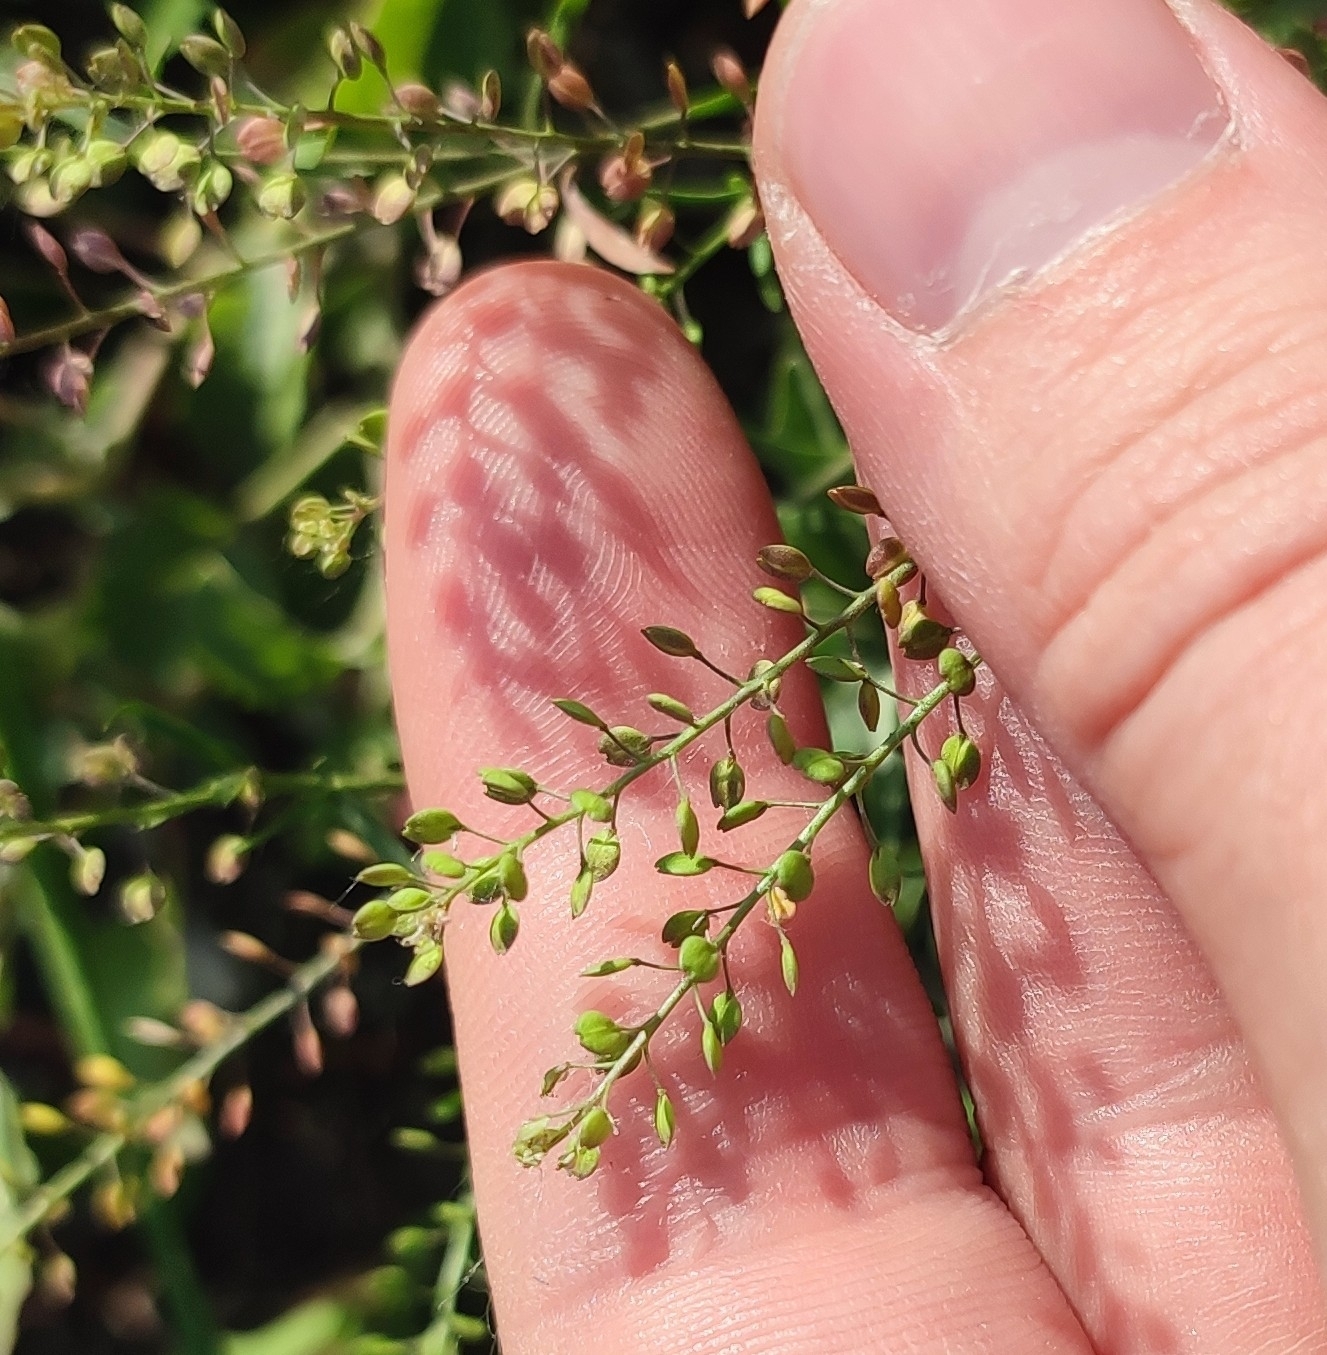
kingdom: Plantae
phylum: Tracheophyta
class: Magnoliopsida
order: Brassicales
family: Brassicaceae
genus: Lepidium
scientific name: Lepidium ruderale
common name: Narrow-leaved pepperwort
